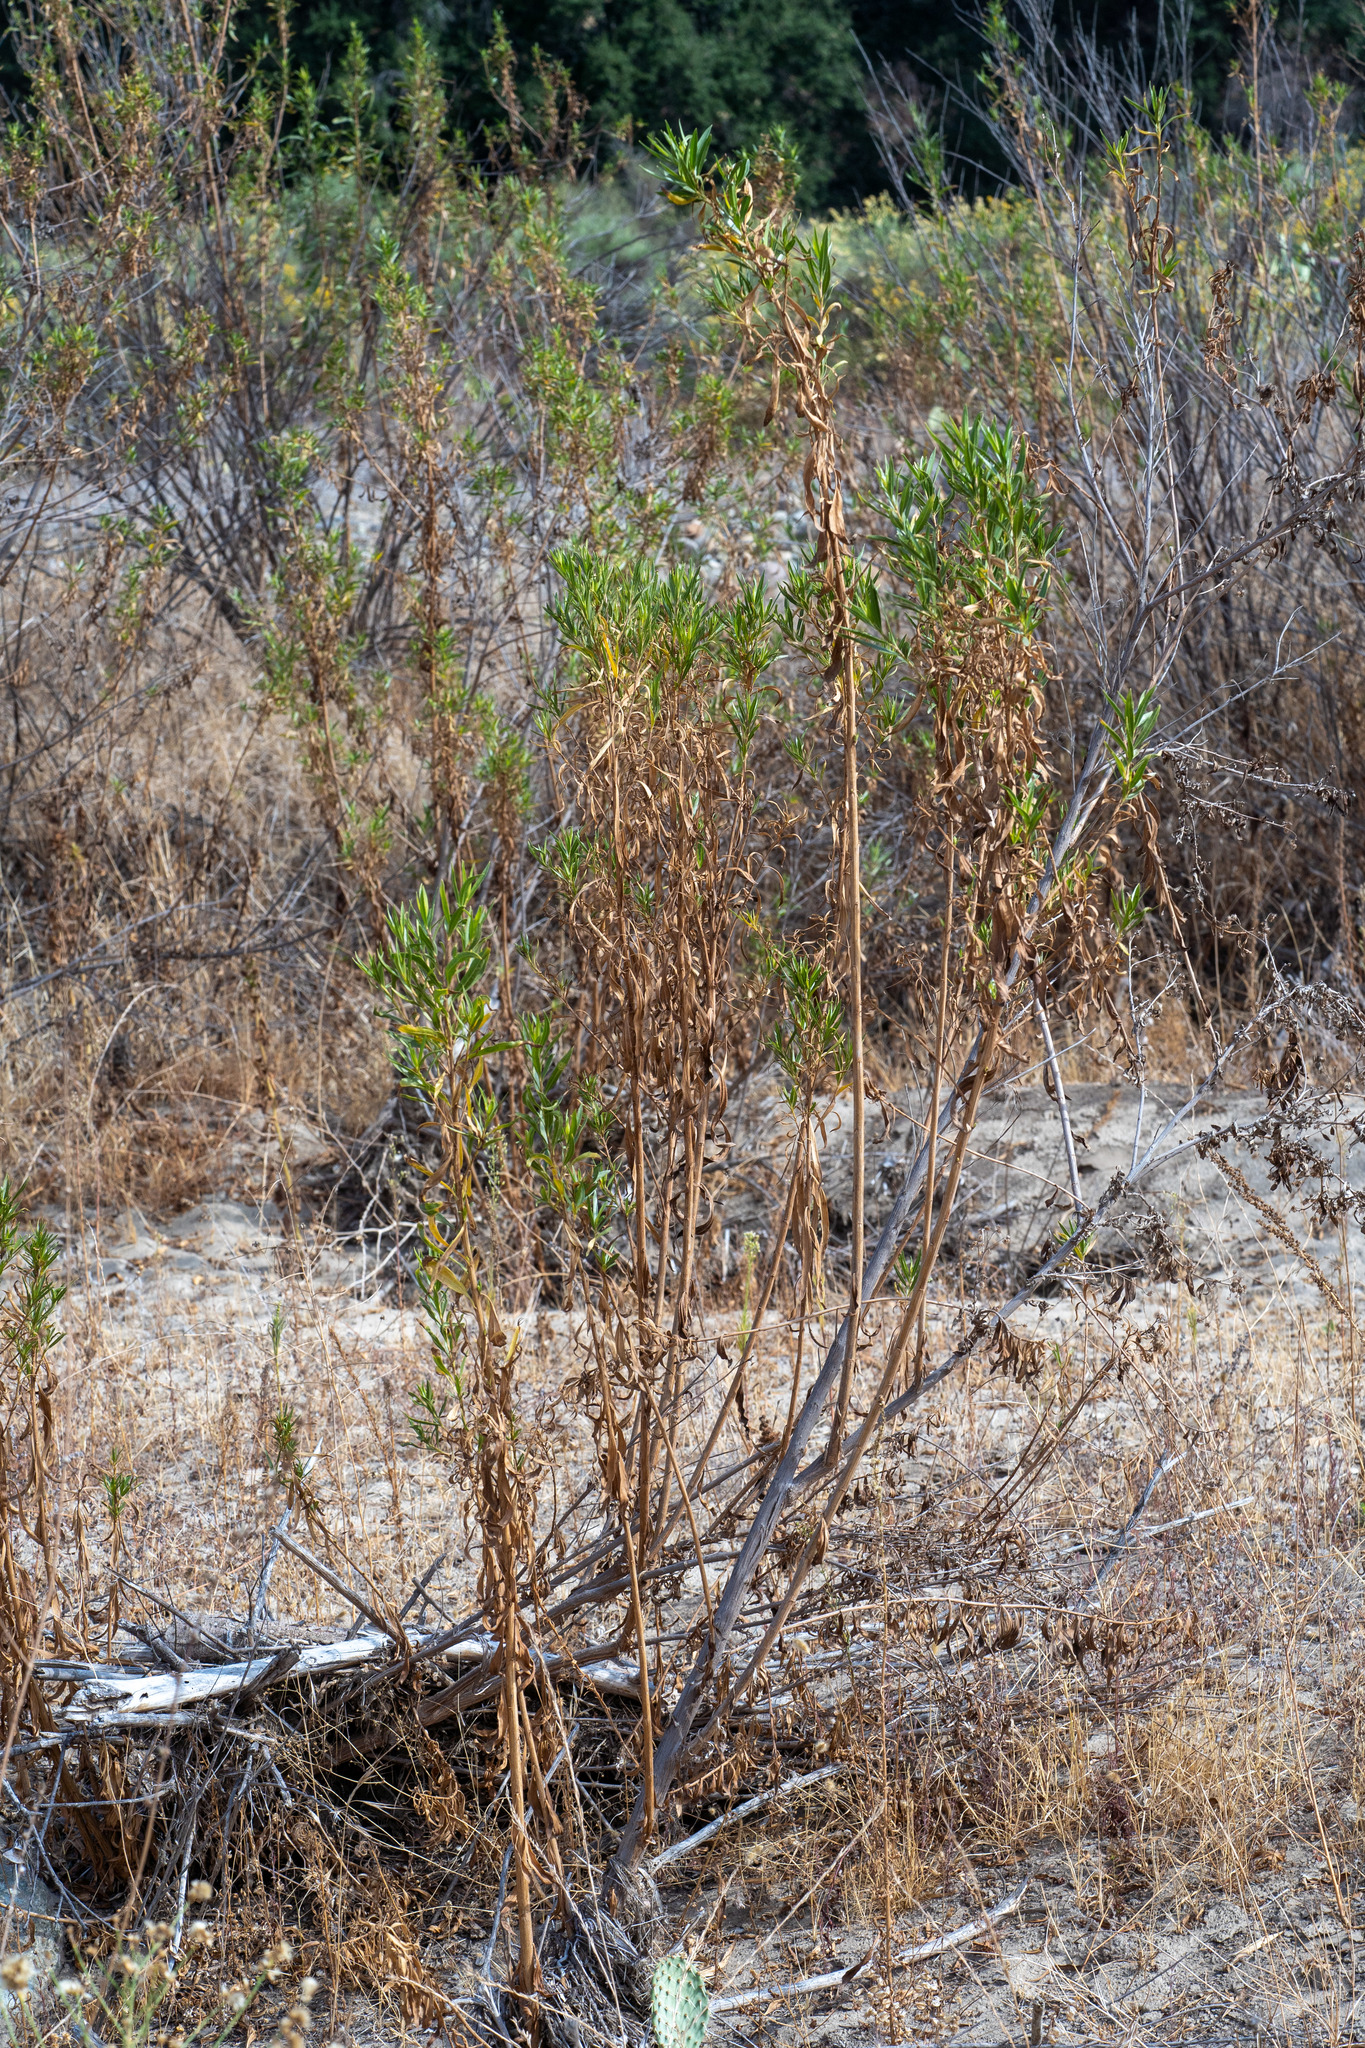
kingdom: Plantae
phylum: Tracheophyta
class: Magnoliopsida
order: Asterales
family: Asteraceae
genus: Baccharis
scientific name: Baccharis salicifolia
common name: Sticky baccharis
